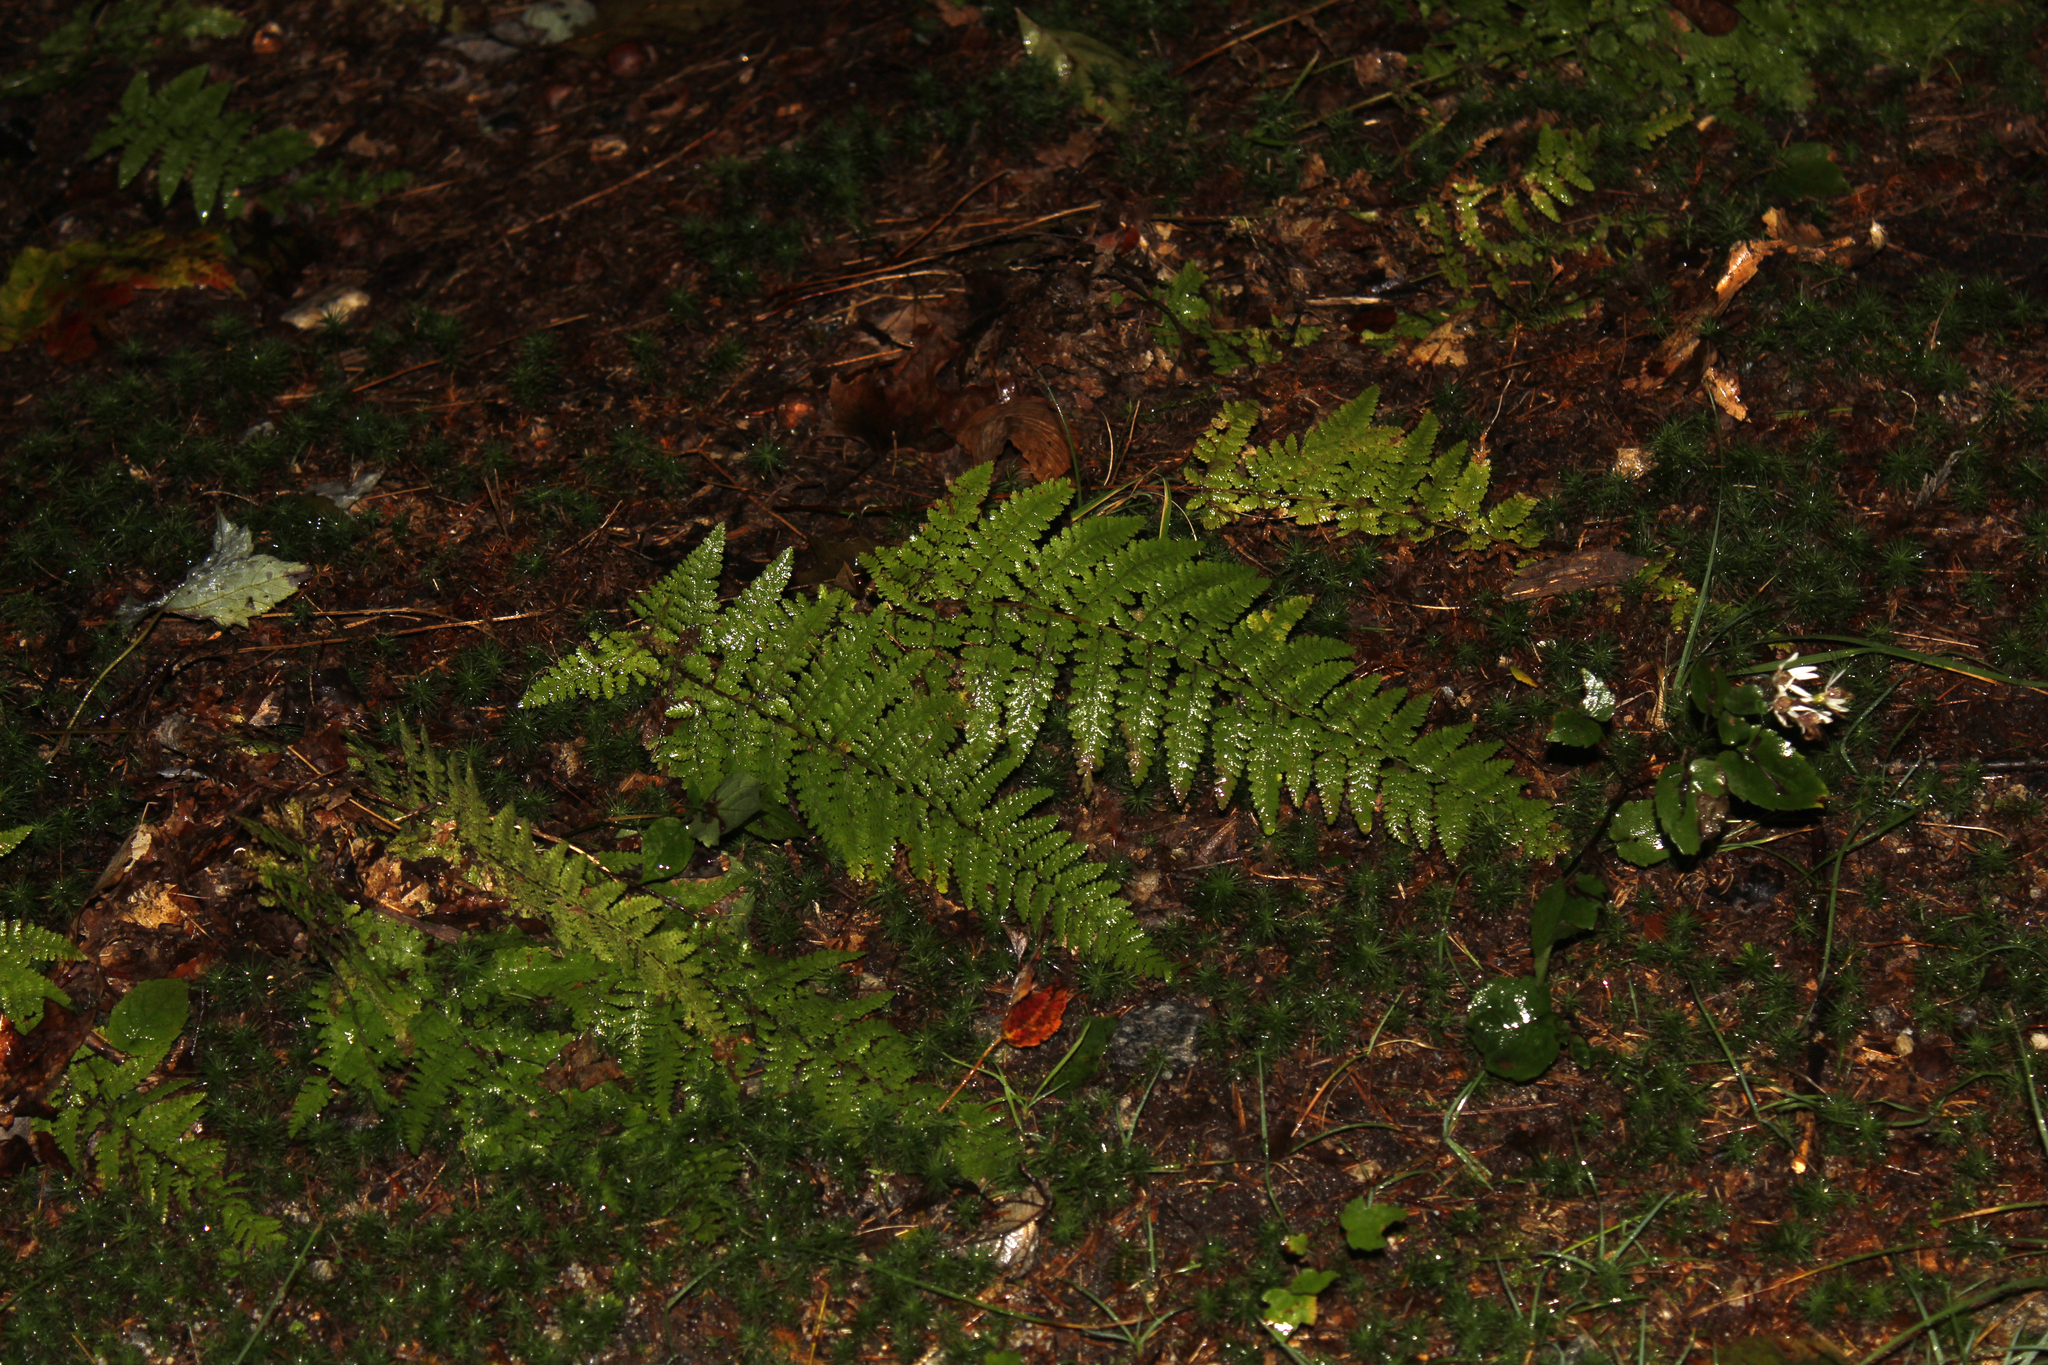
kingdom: Plantae
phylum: Tracheophyta
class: Polypodiopsida
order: Polypodiales
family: Dennstaedtiaceae
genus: Sitobolium
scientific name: Sitobolium punctilobum
